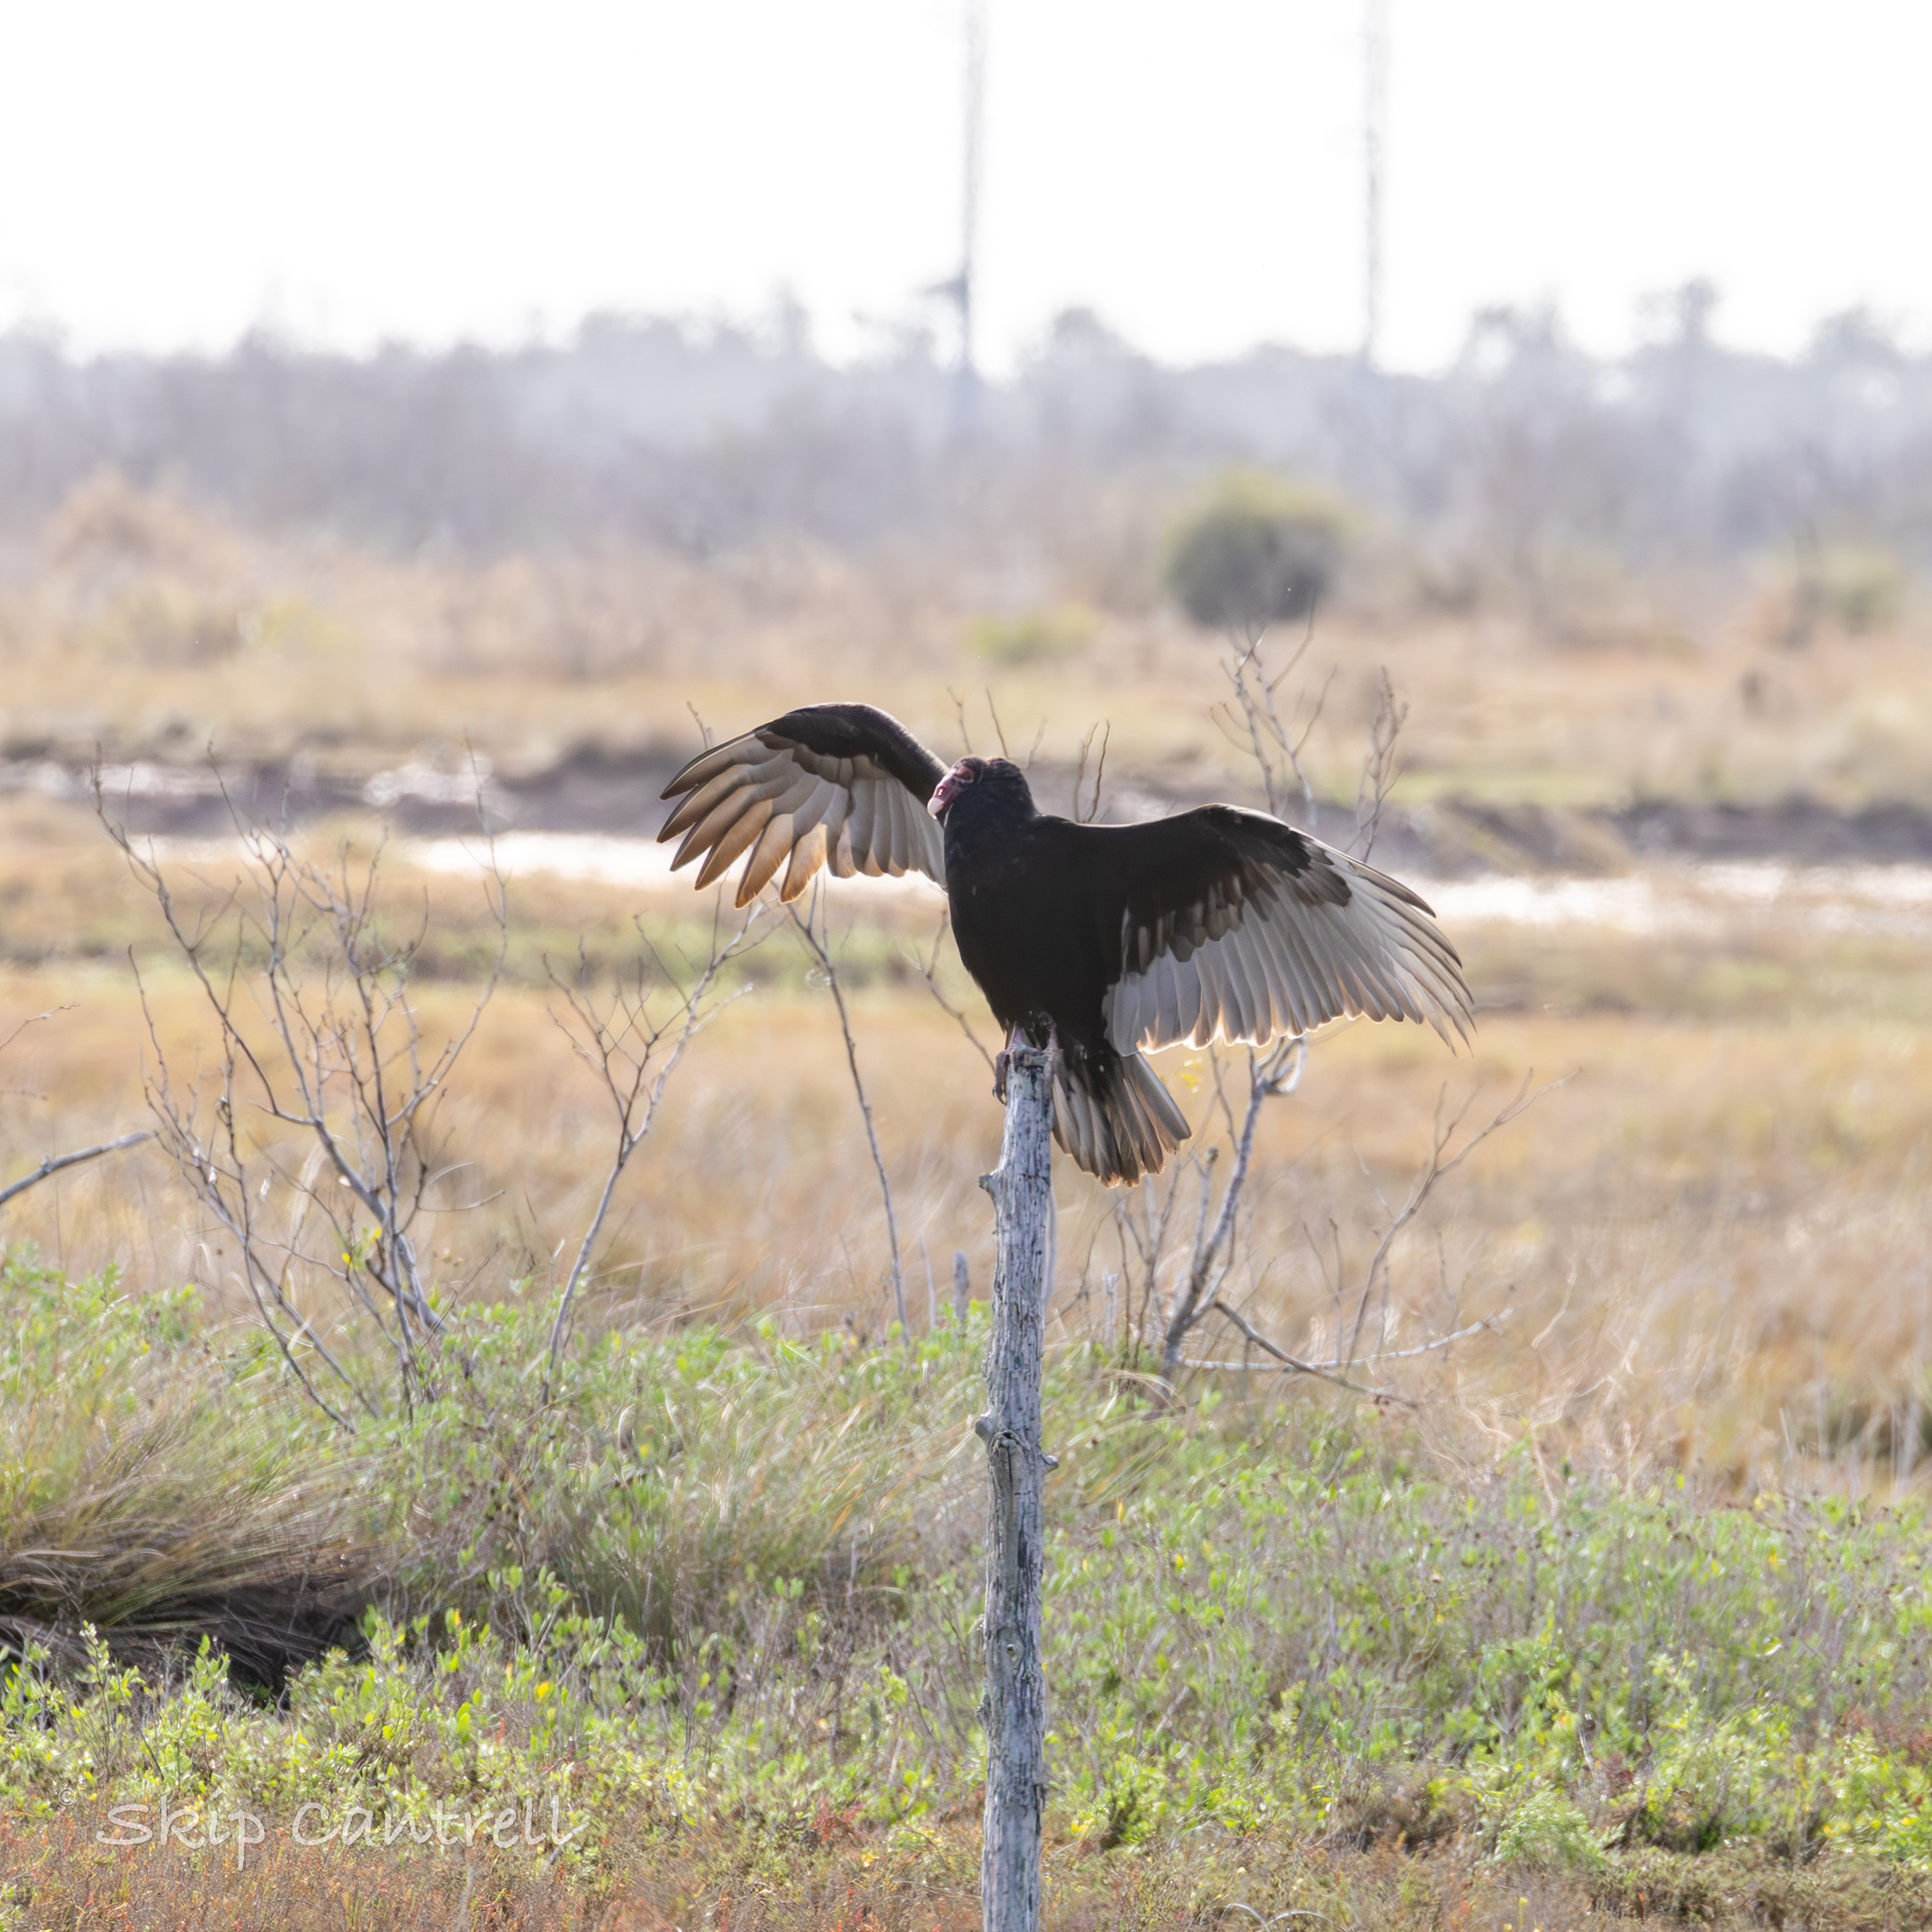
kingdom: Animalia
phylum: Chordata
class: Aves
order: Accipitriformes
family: Cathartidae
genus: Cathartes
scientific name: Cathartes aura
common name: Turkey vulture
